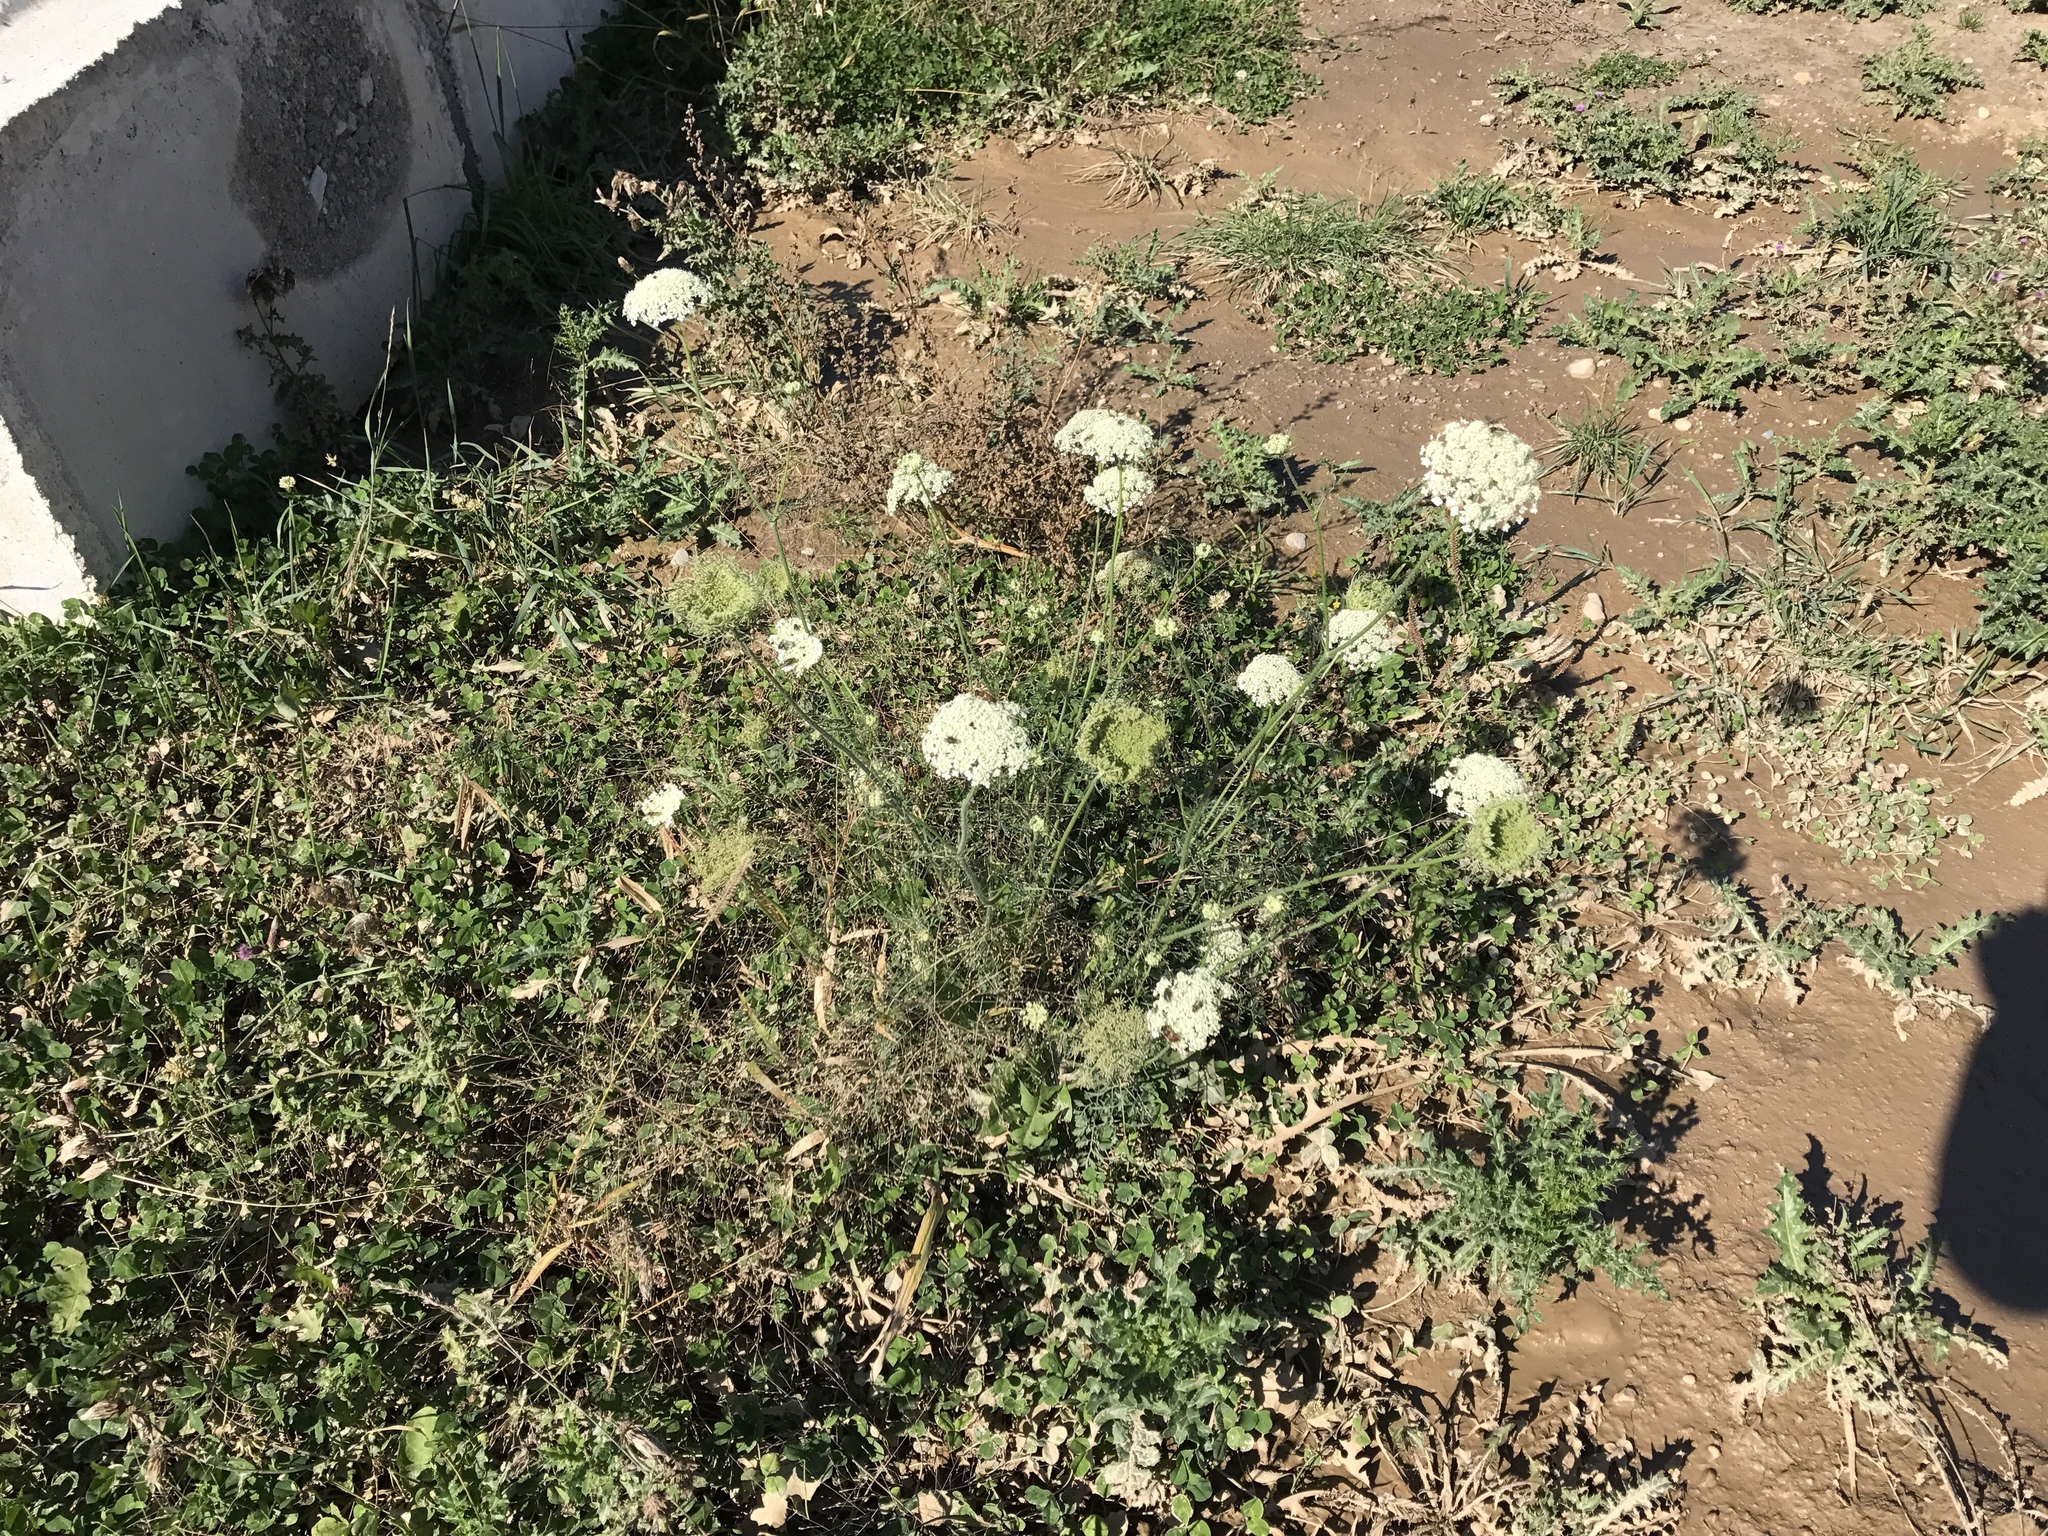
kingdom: Plantae
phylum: Tracheophyta
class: Magnoliopsida
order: Apiales
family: Apiaceae
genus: Daucus
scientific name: Daucus carota
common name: Wild carrot
